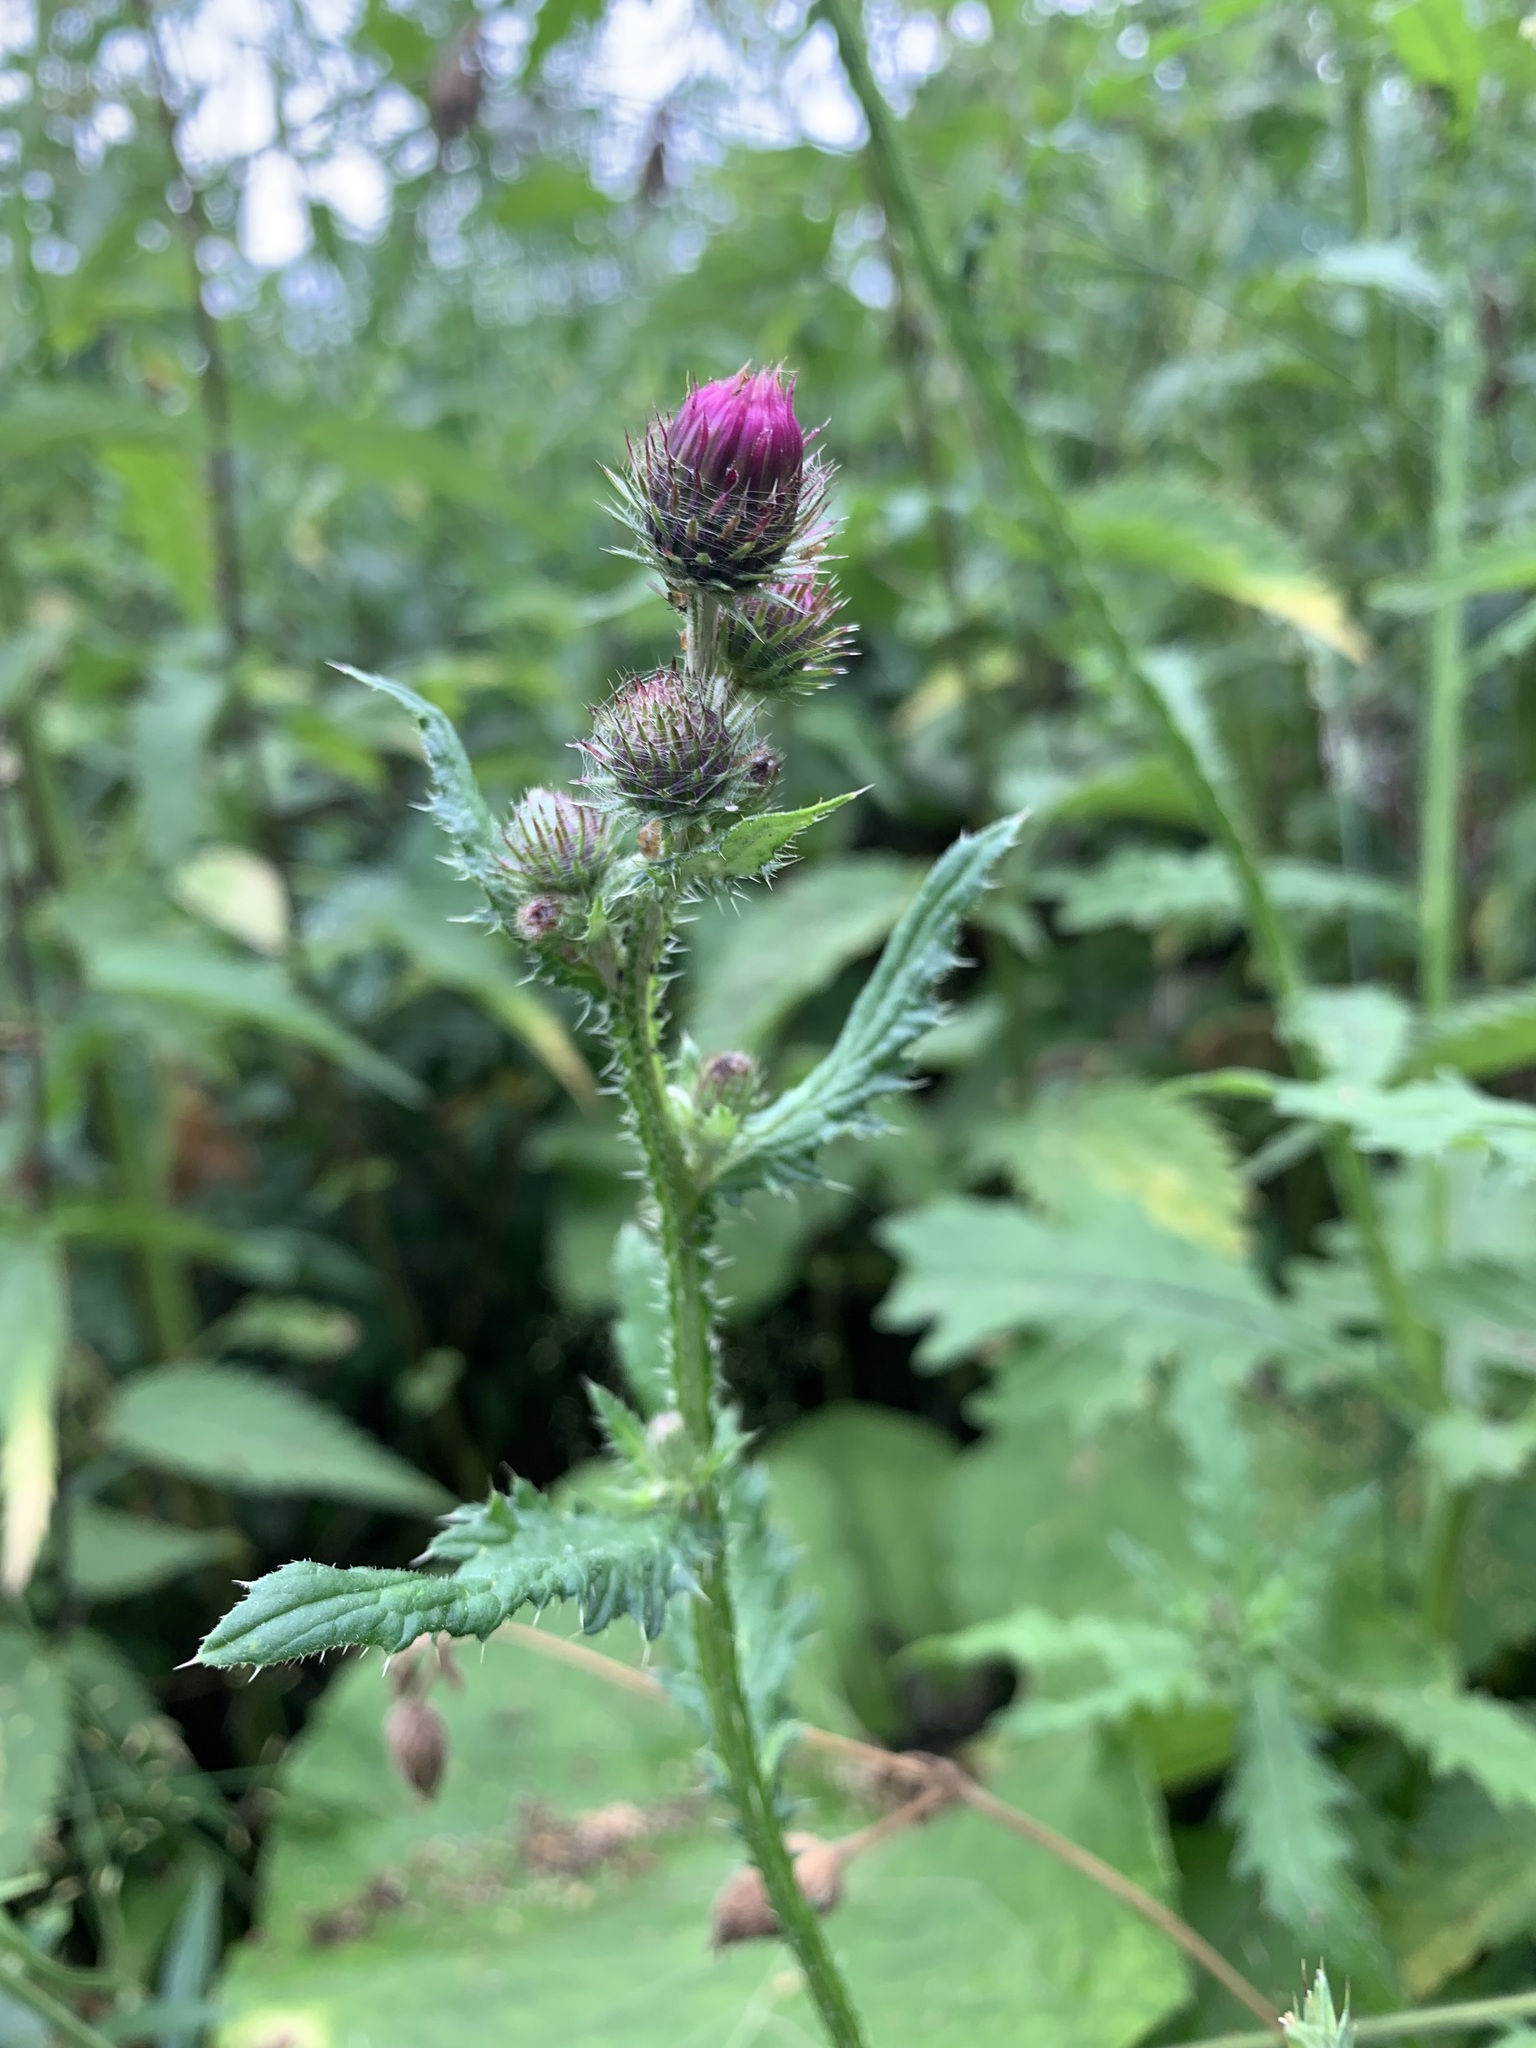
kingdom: Plantae
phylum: Tracheophyta
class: Magnoliopsida
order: Asterales
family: Asteraceae
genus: Carduus
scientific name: Carduus crispus
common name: Welted thistle
